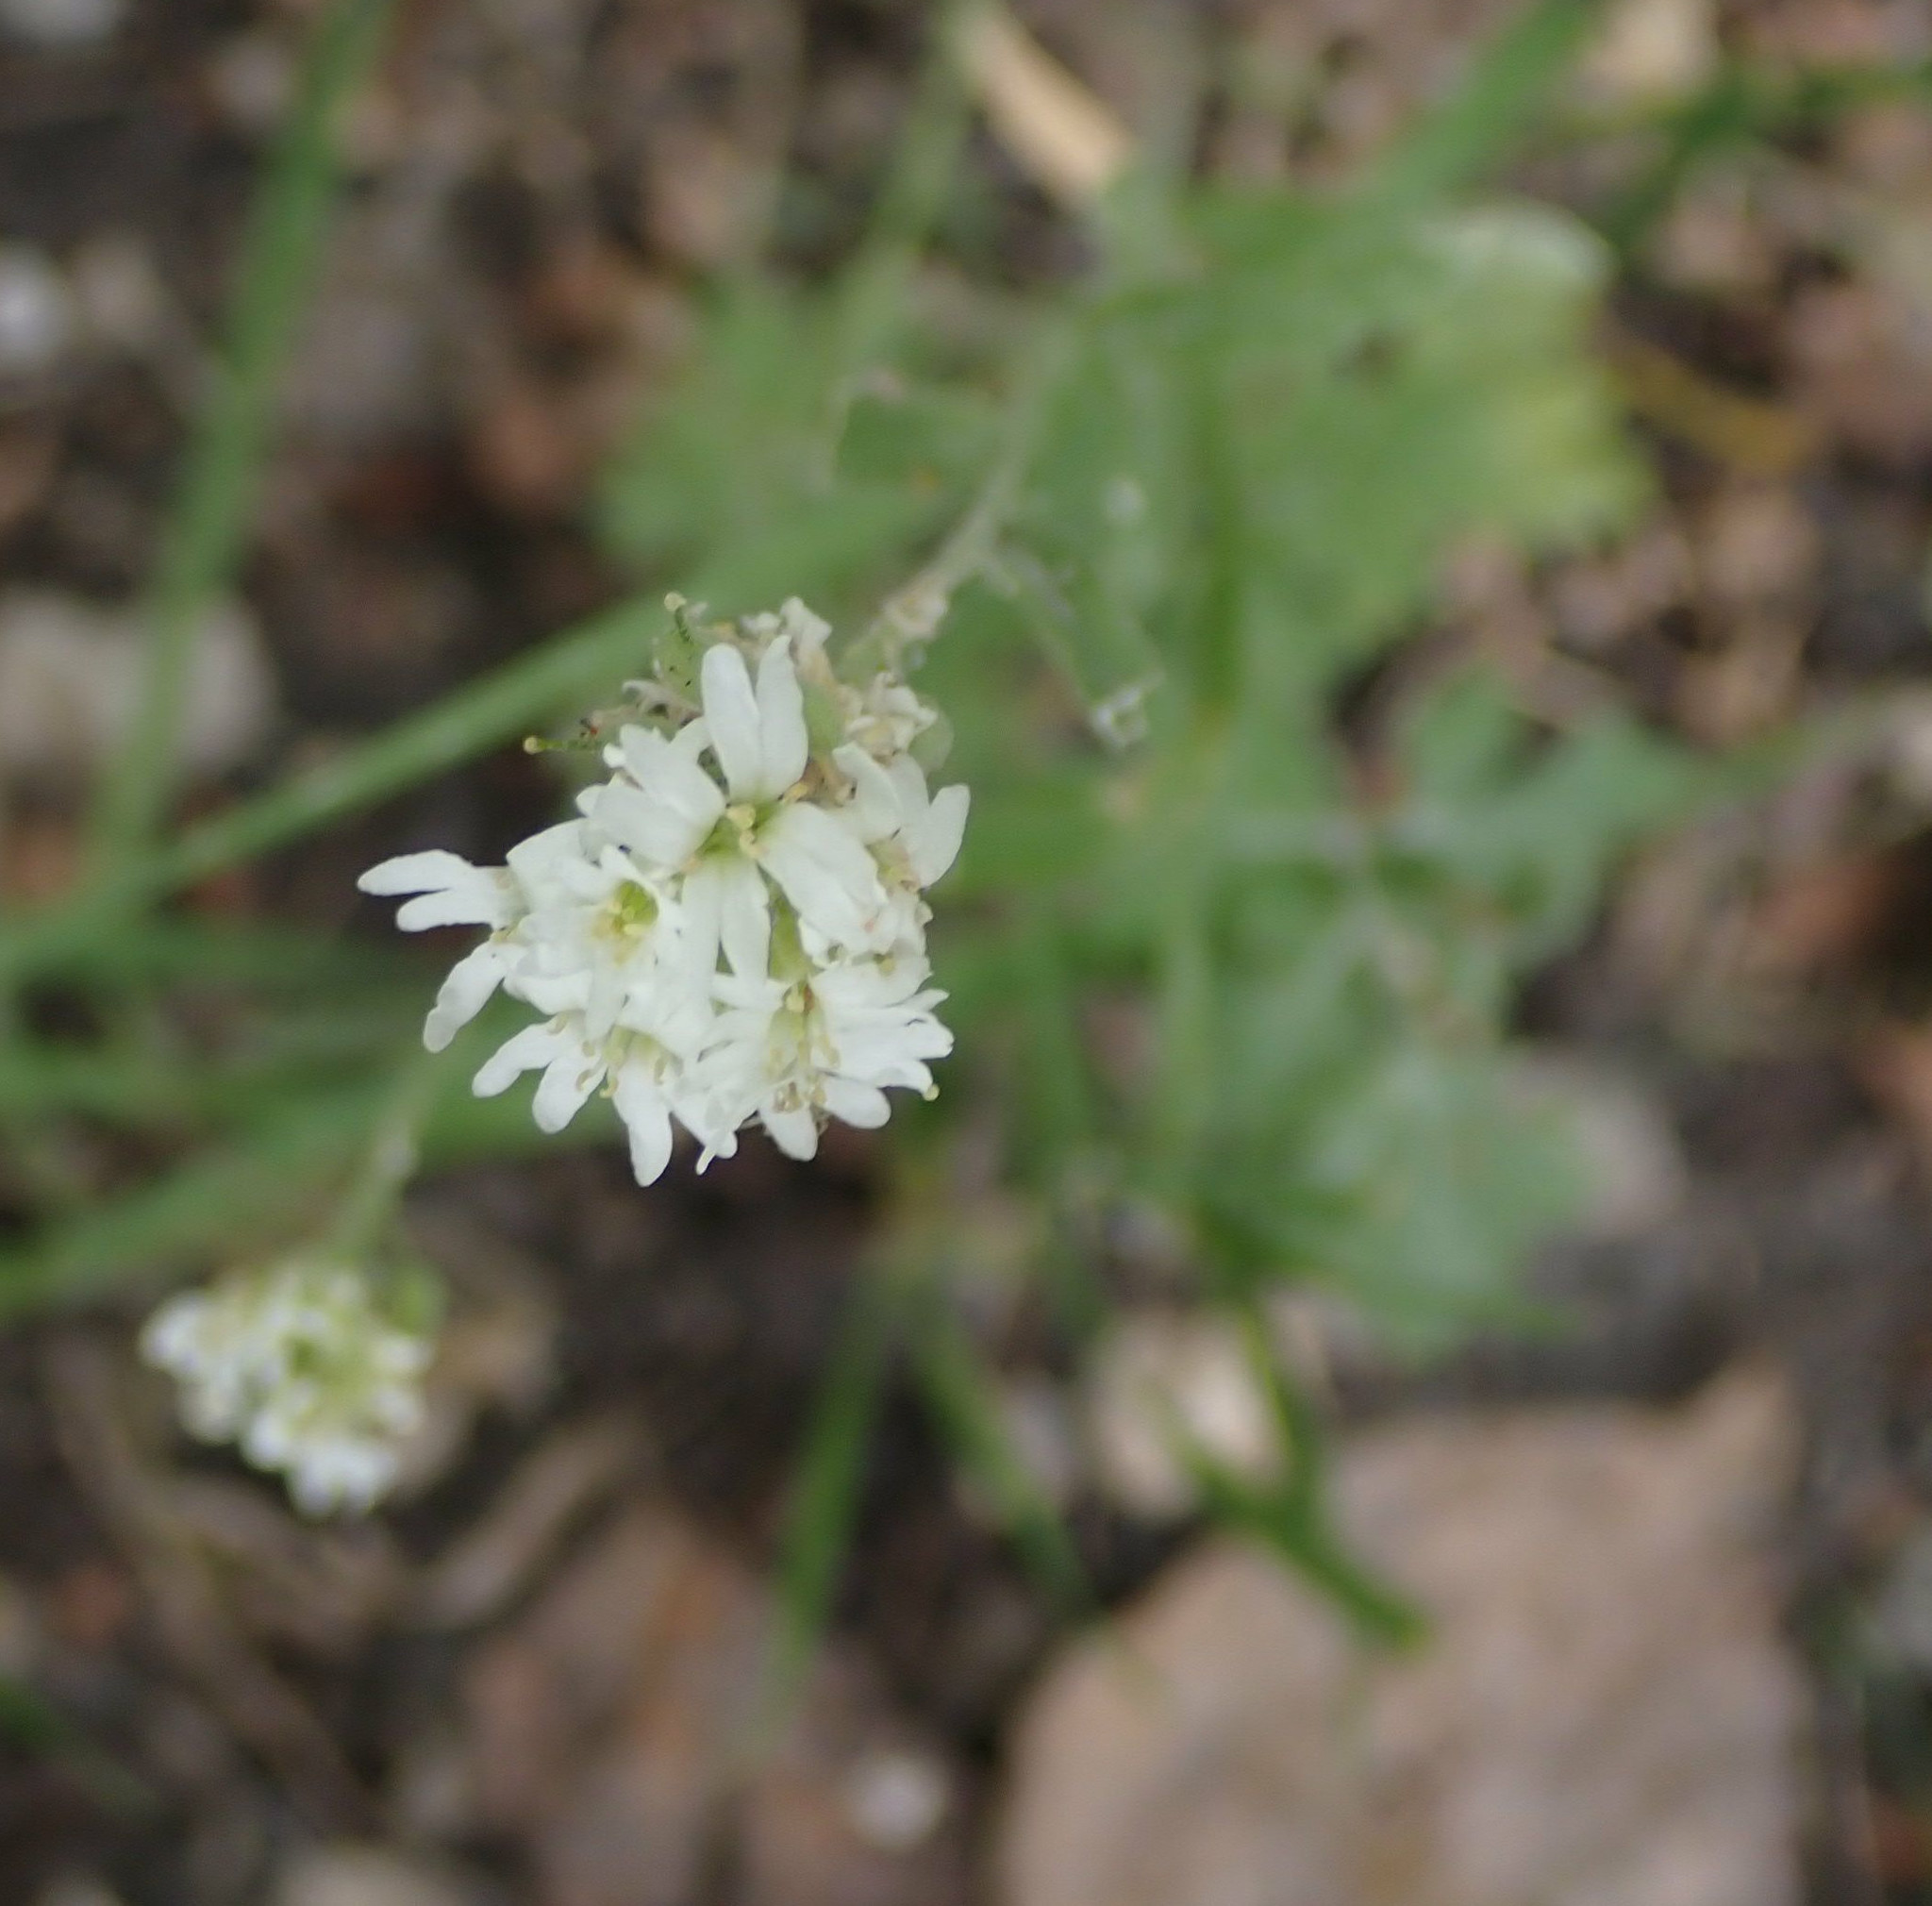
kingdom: Plantae
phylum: Tracheophyta
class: Magnoliopsida
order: Brassicales
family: Brassicaceae
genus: Berteroa
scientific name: Berteroa incana
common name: Hoary alison
